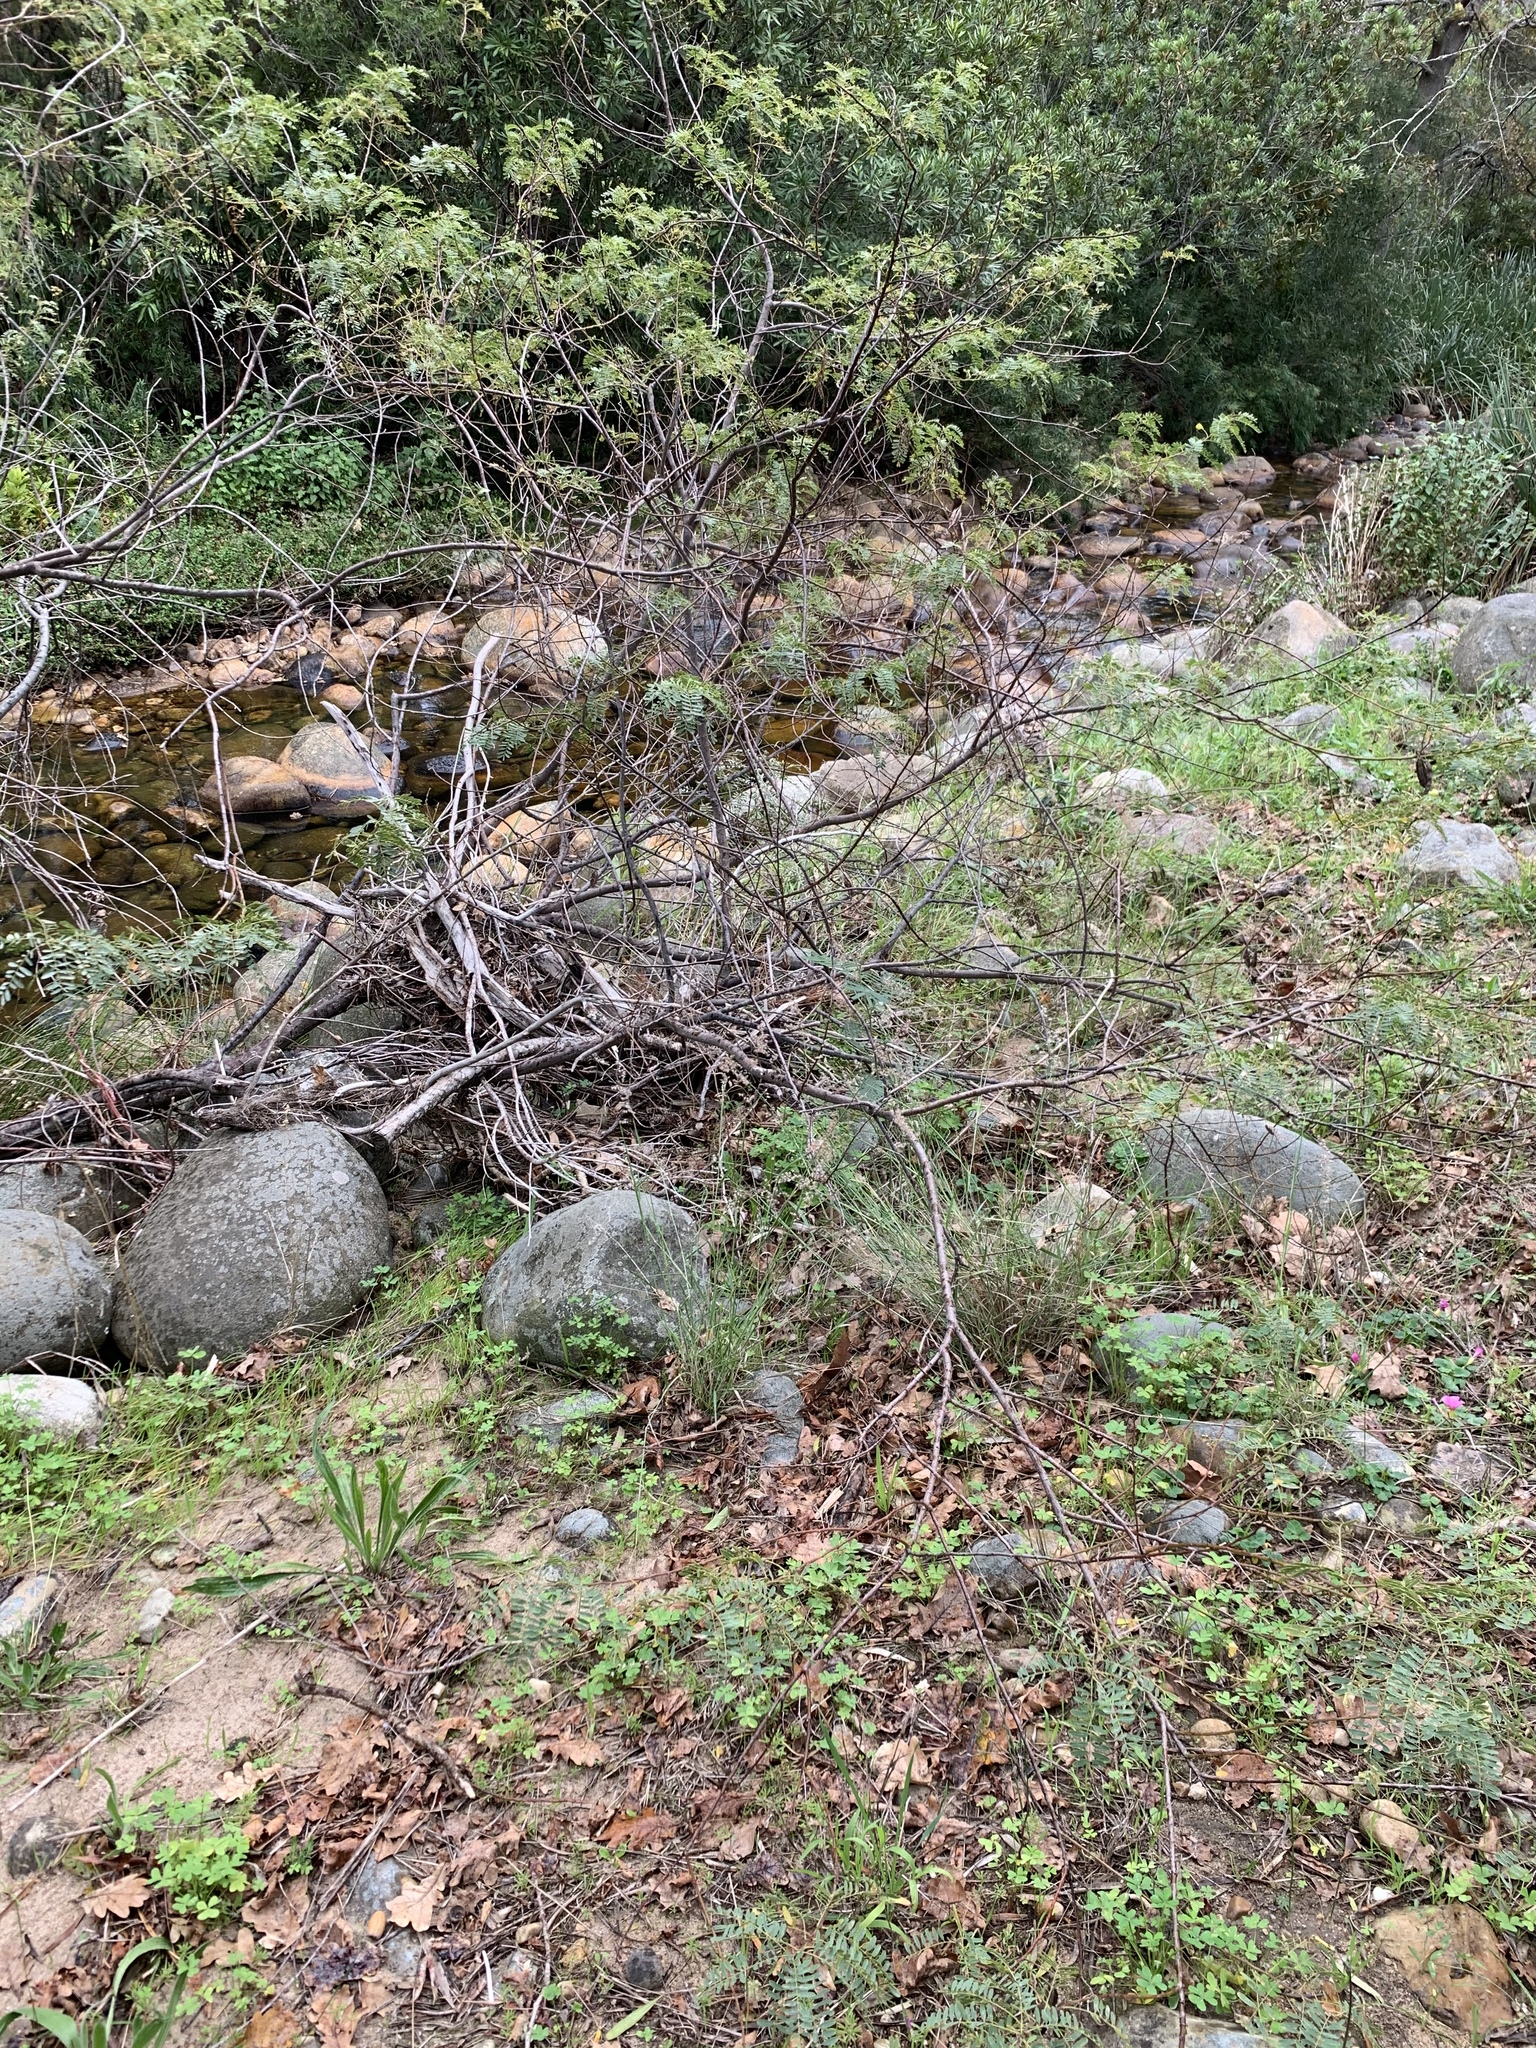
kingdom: Plantae
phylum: Tracheophyta
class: Magnoliopsida
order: Fabales
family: Fabaceae
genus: Sesbania
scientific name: Sesbania punicea
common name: Rattlebox
